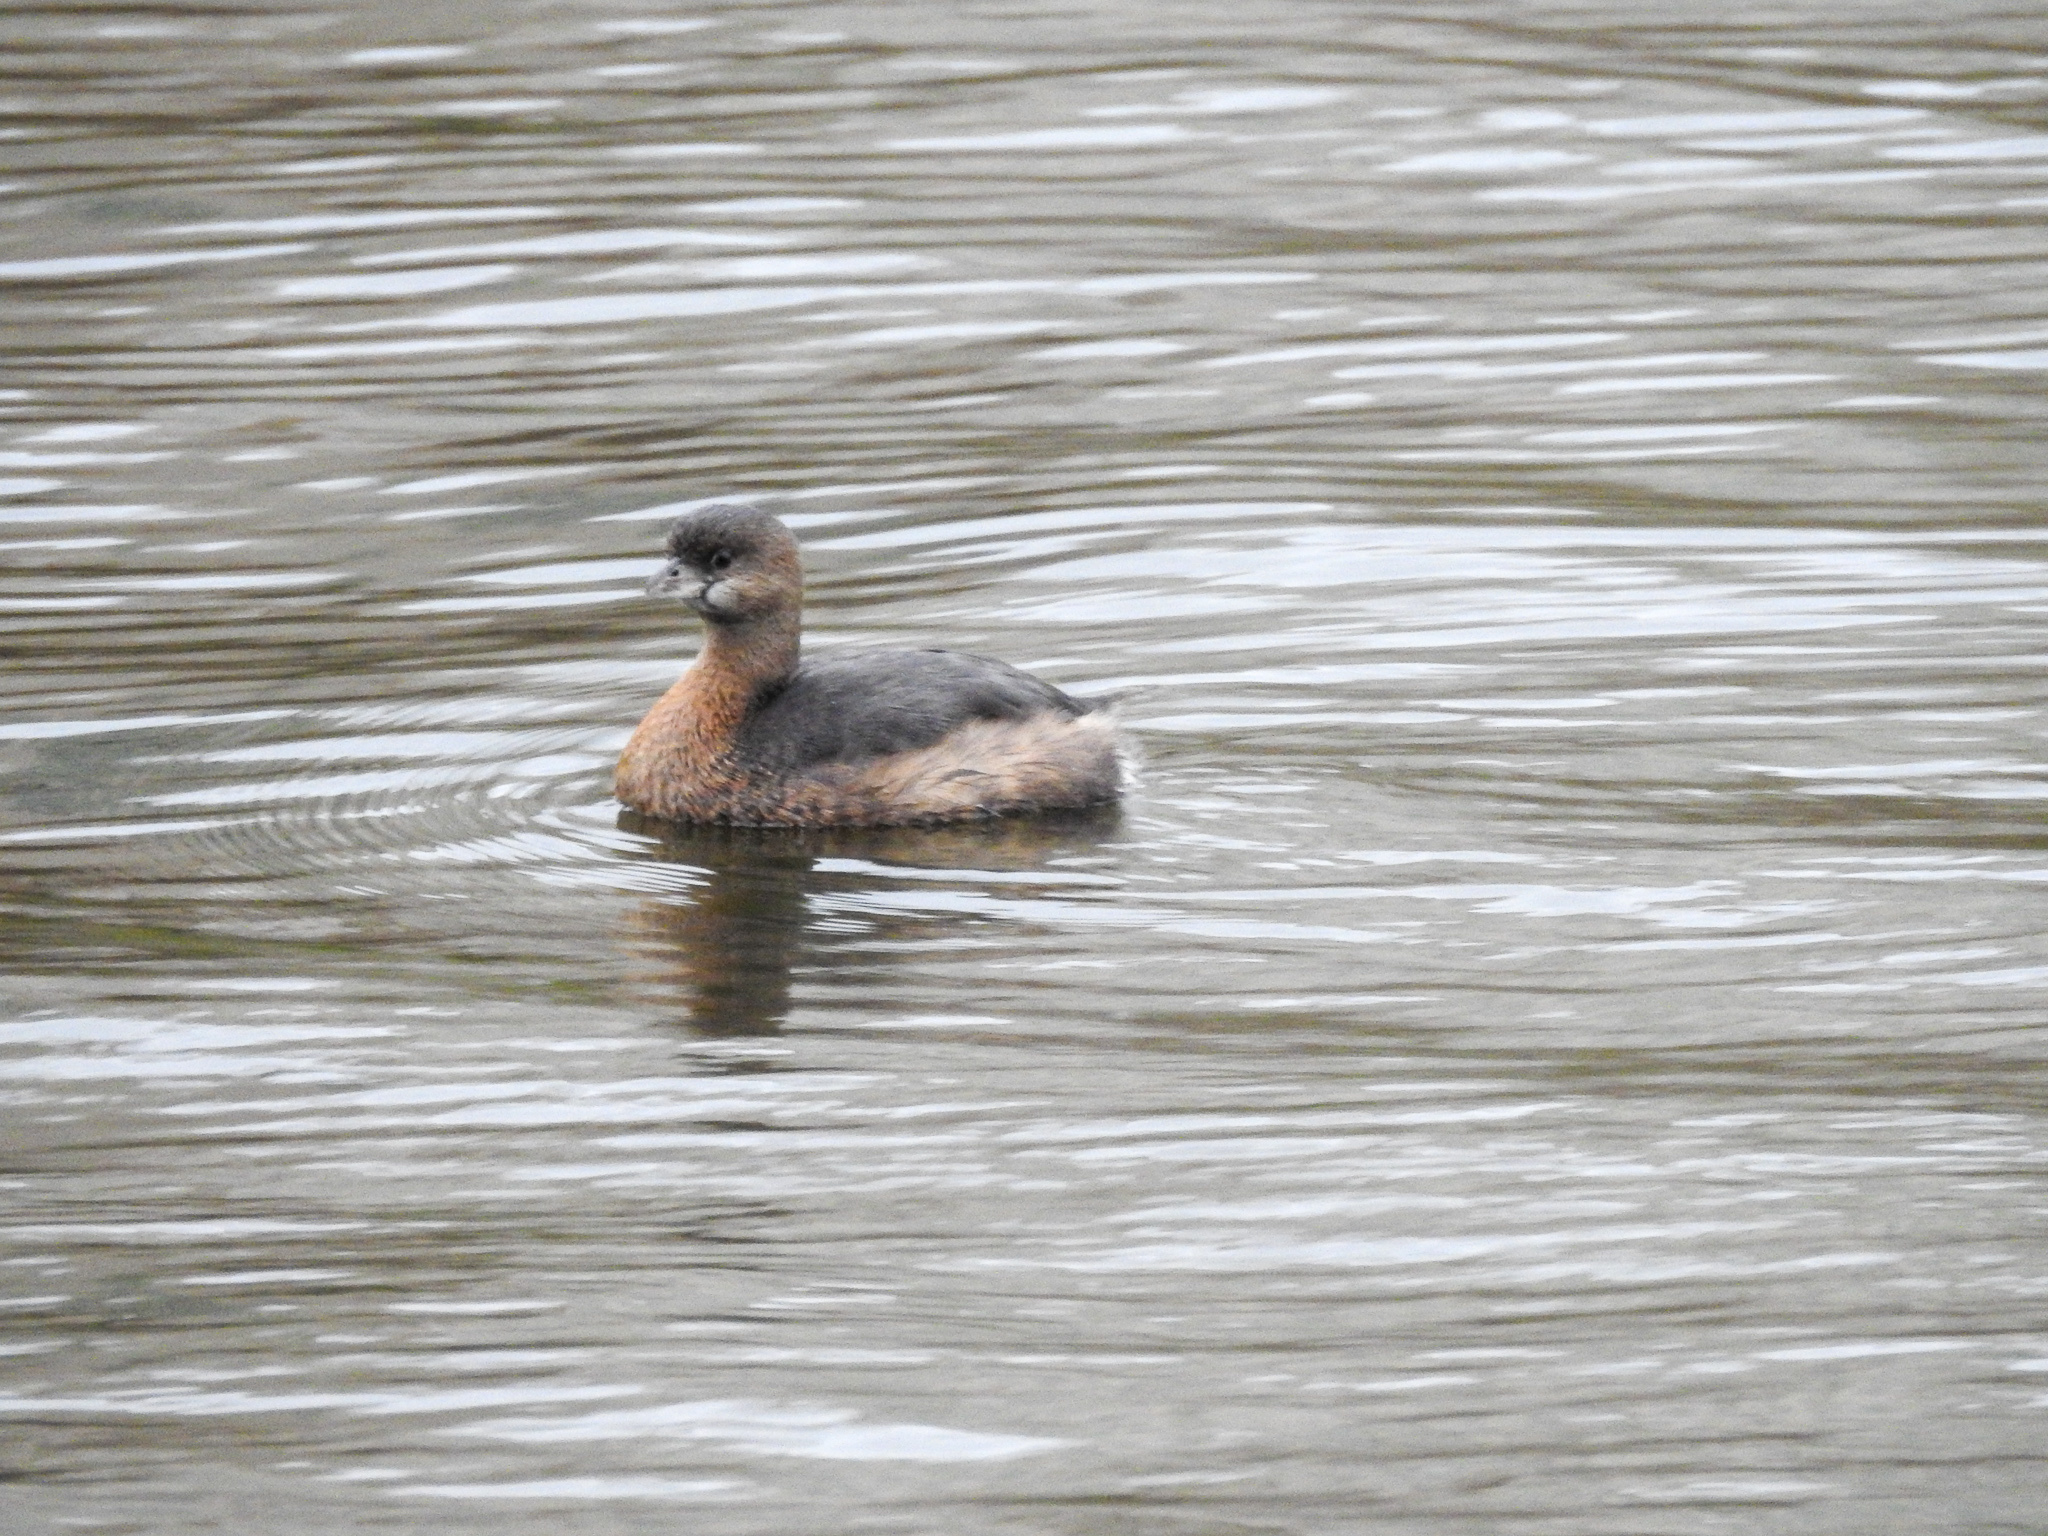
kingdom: Animalia
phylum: Chordata
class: Aves
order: Podicipediformes
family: Podicipedidae
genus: Podilymbus
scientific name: Podilymbus podiceps
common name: Pied-billed grebe
